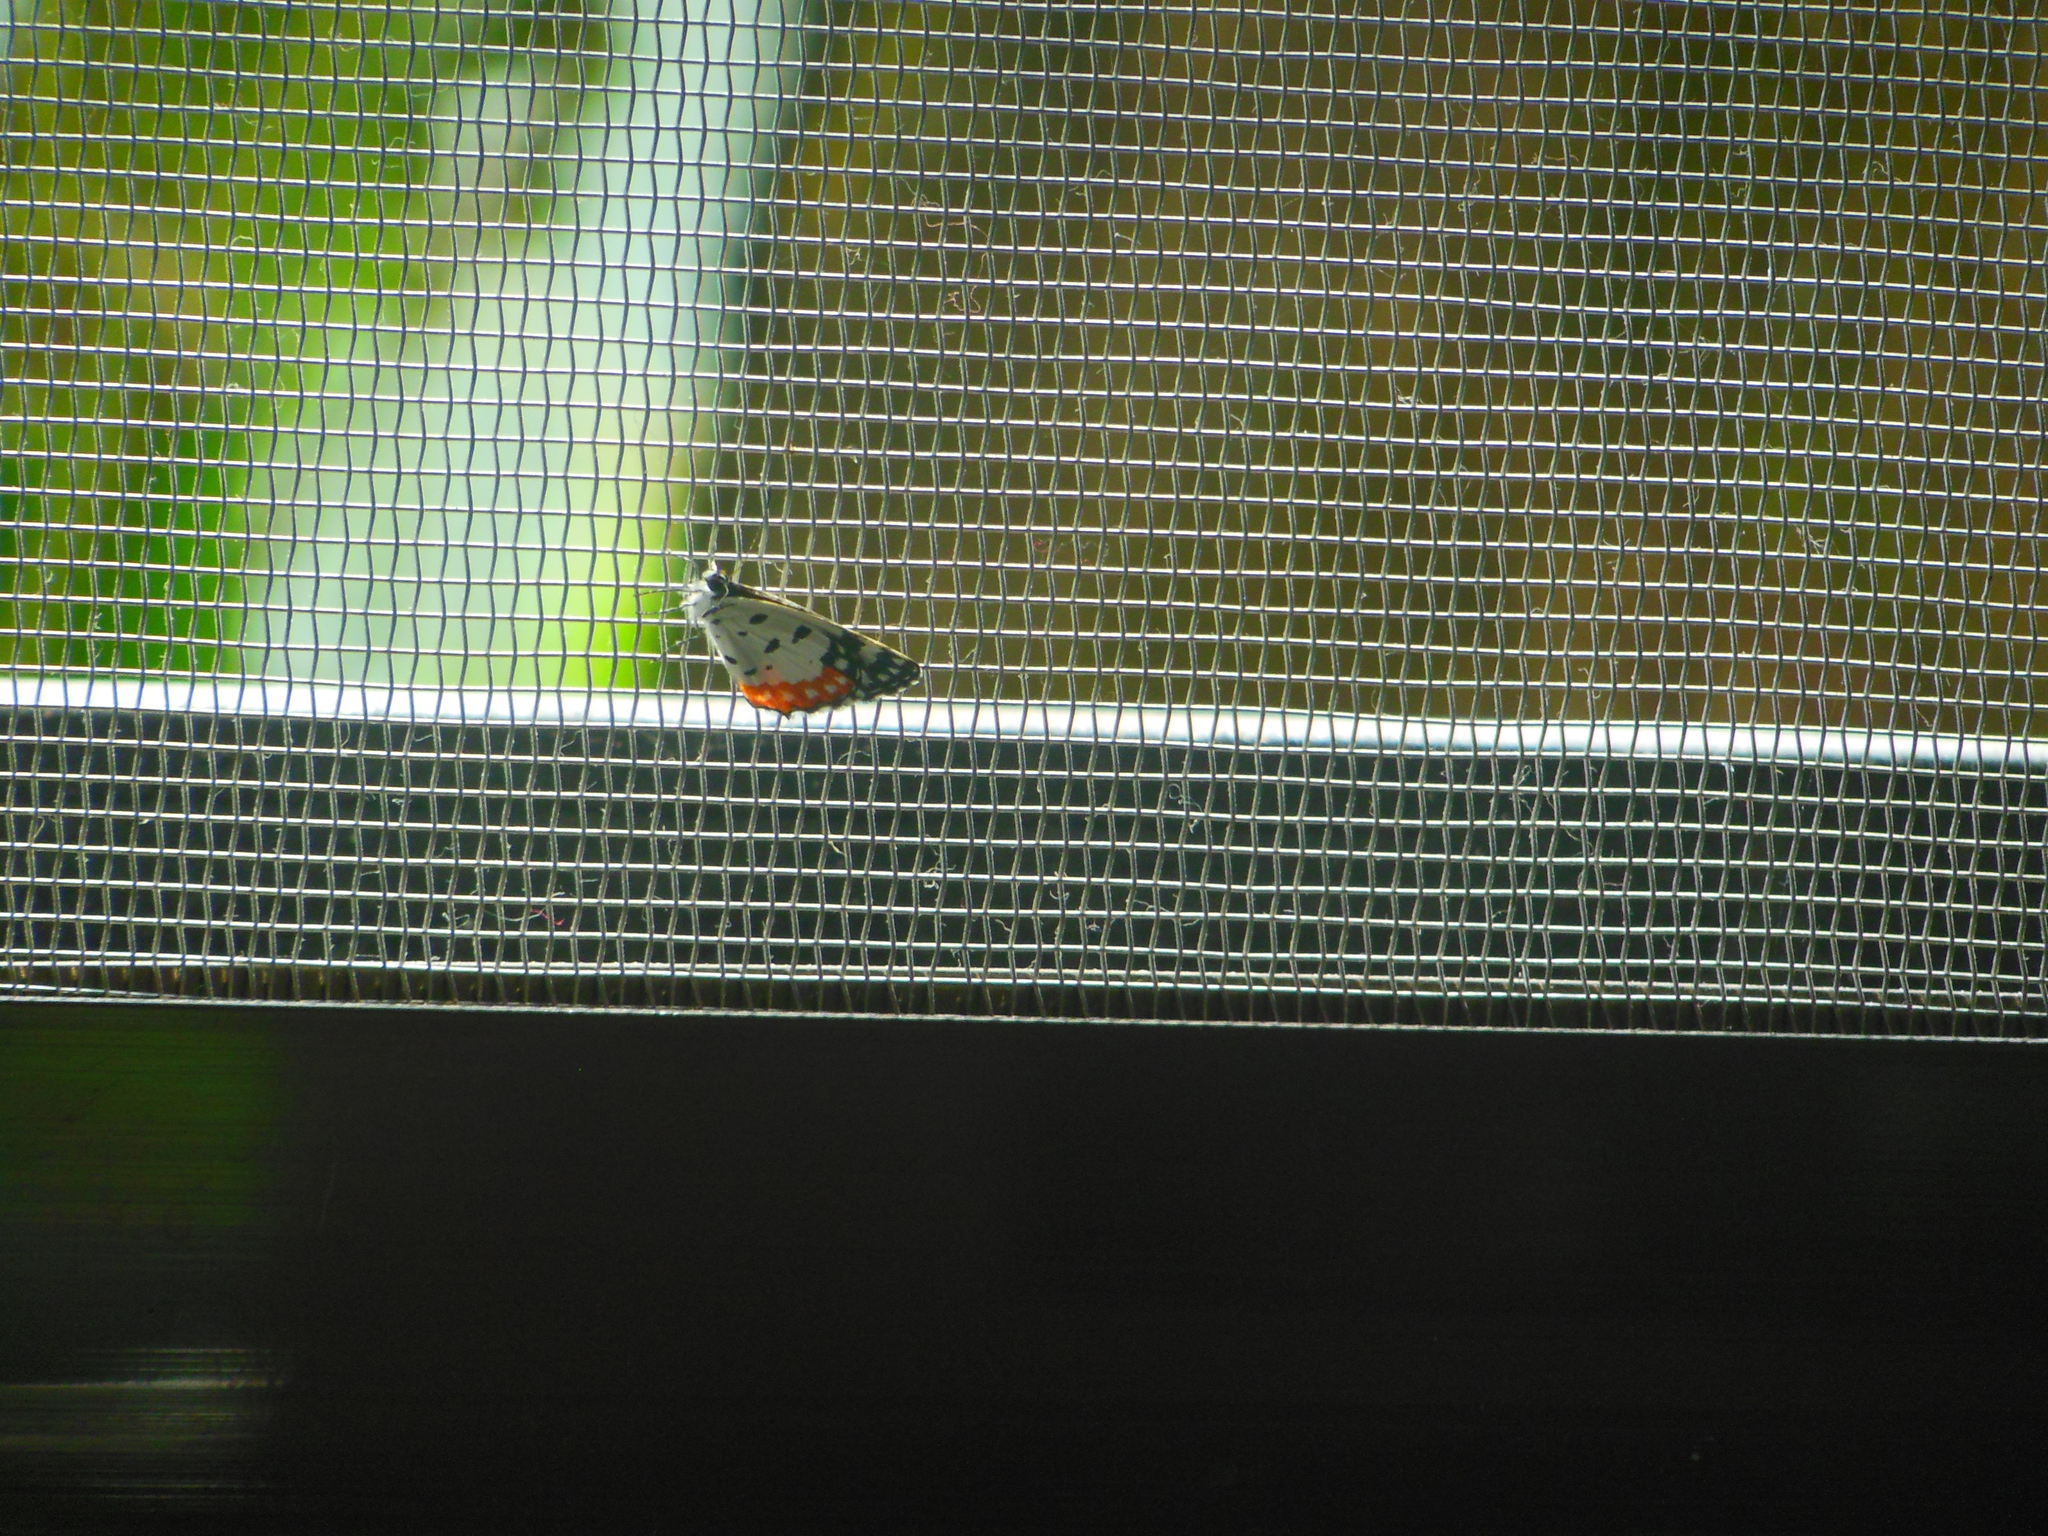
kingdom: Animalia
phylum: Arthropoda
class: Insecta
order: Lepidoptera
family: Lycaenidae
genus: Talicada
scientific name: Talicada nyseus
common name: Red pierrot
